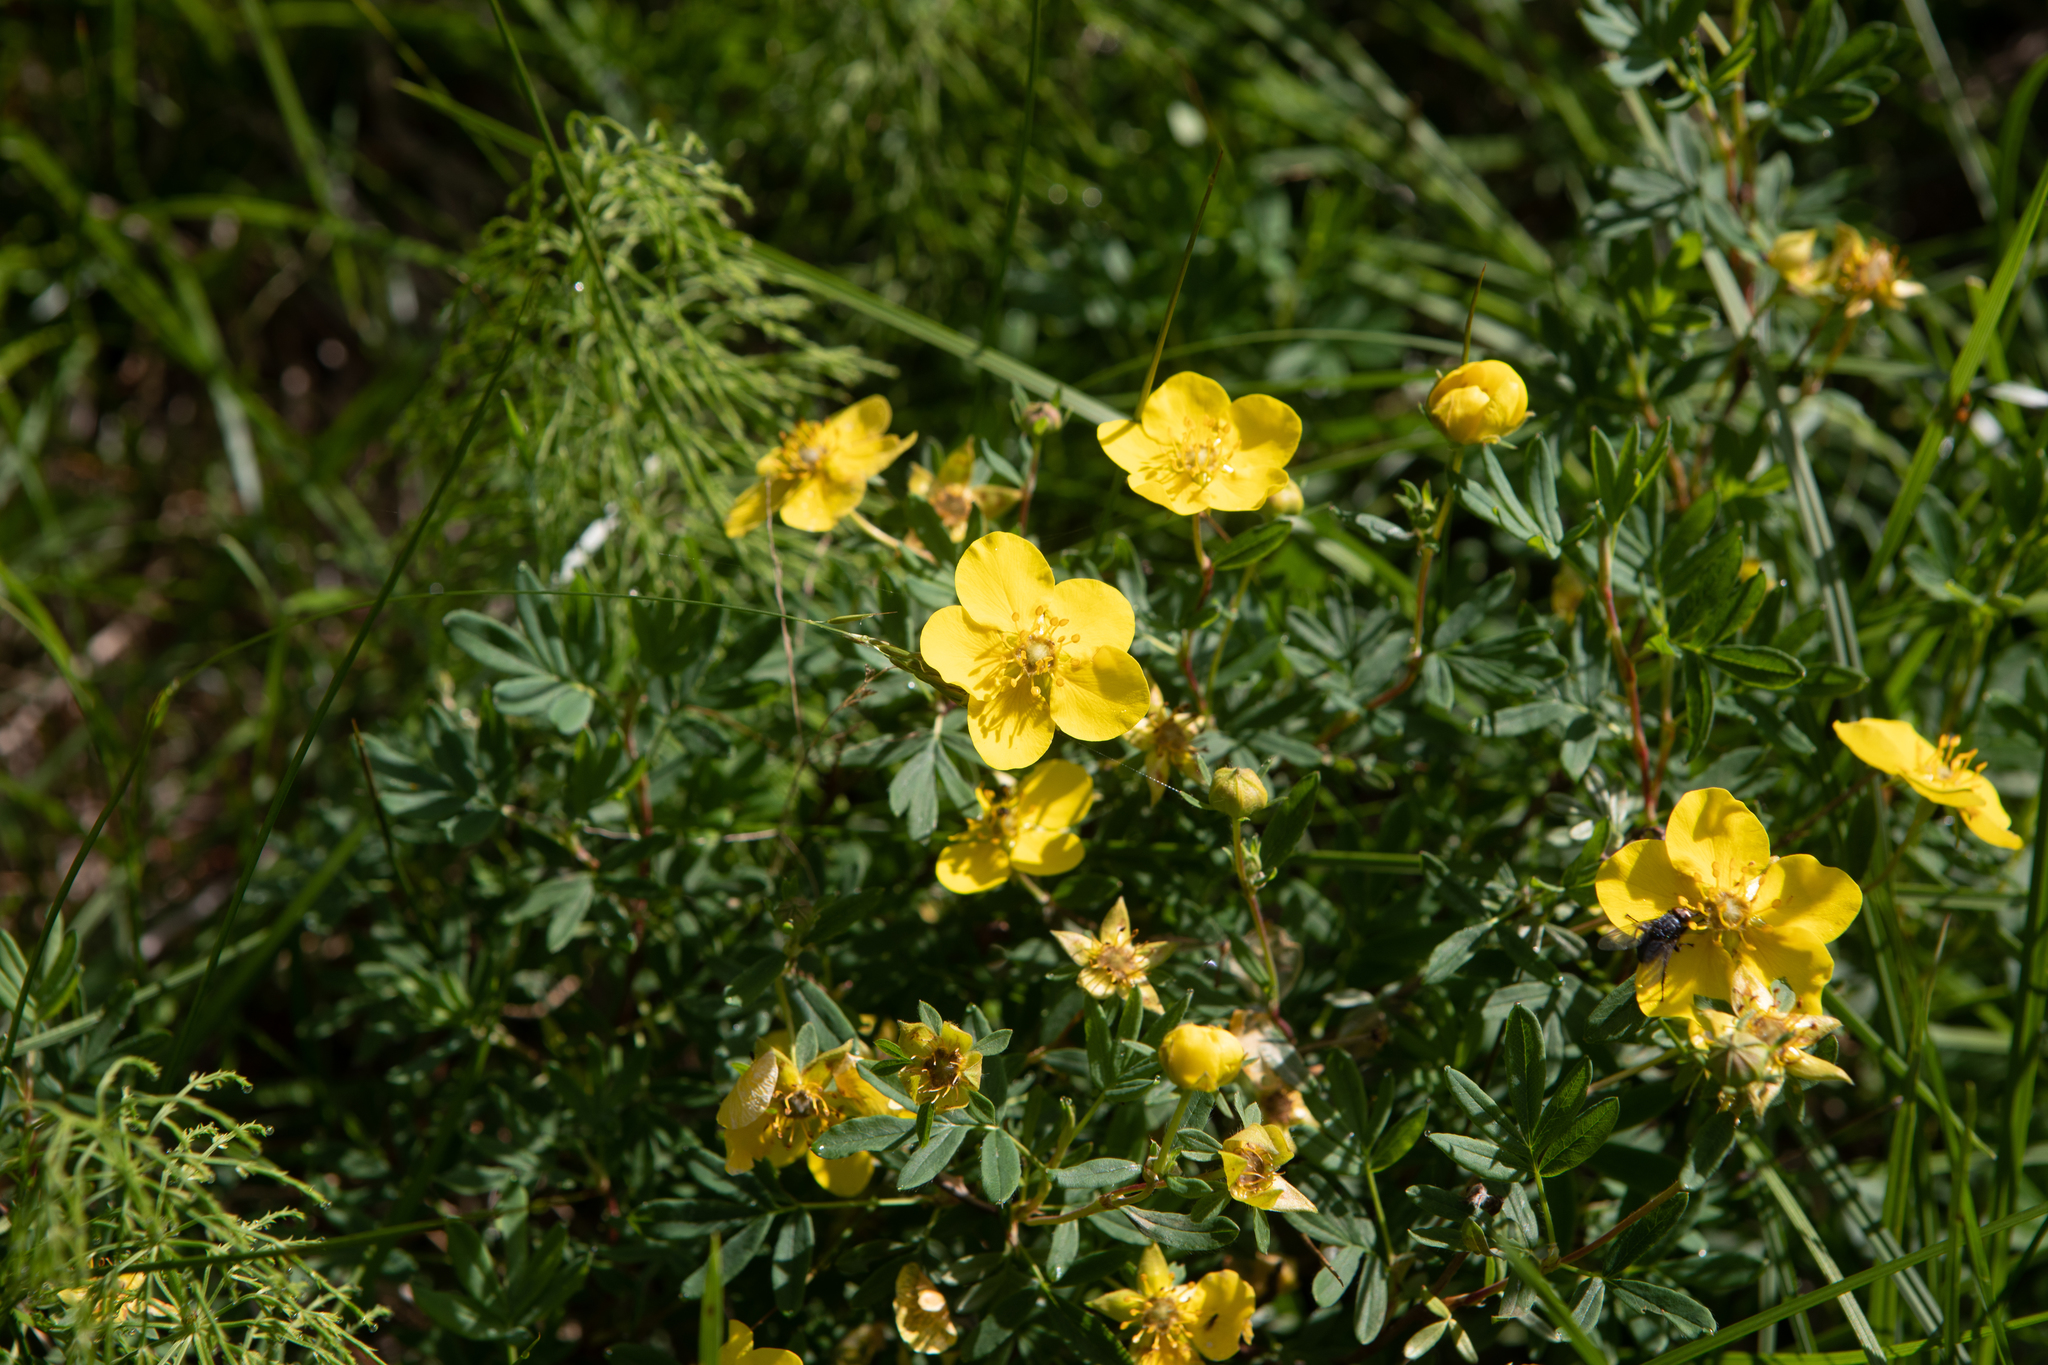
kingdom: Plantae
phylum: Tracheophyta
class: Magnoliopsida
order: Rosales
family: Rosaceae
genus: Dasiphora
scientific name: Dasiphora fruticosa
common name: Shrubby cinquefoil
